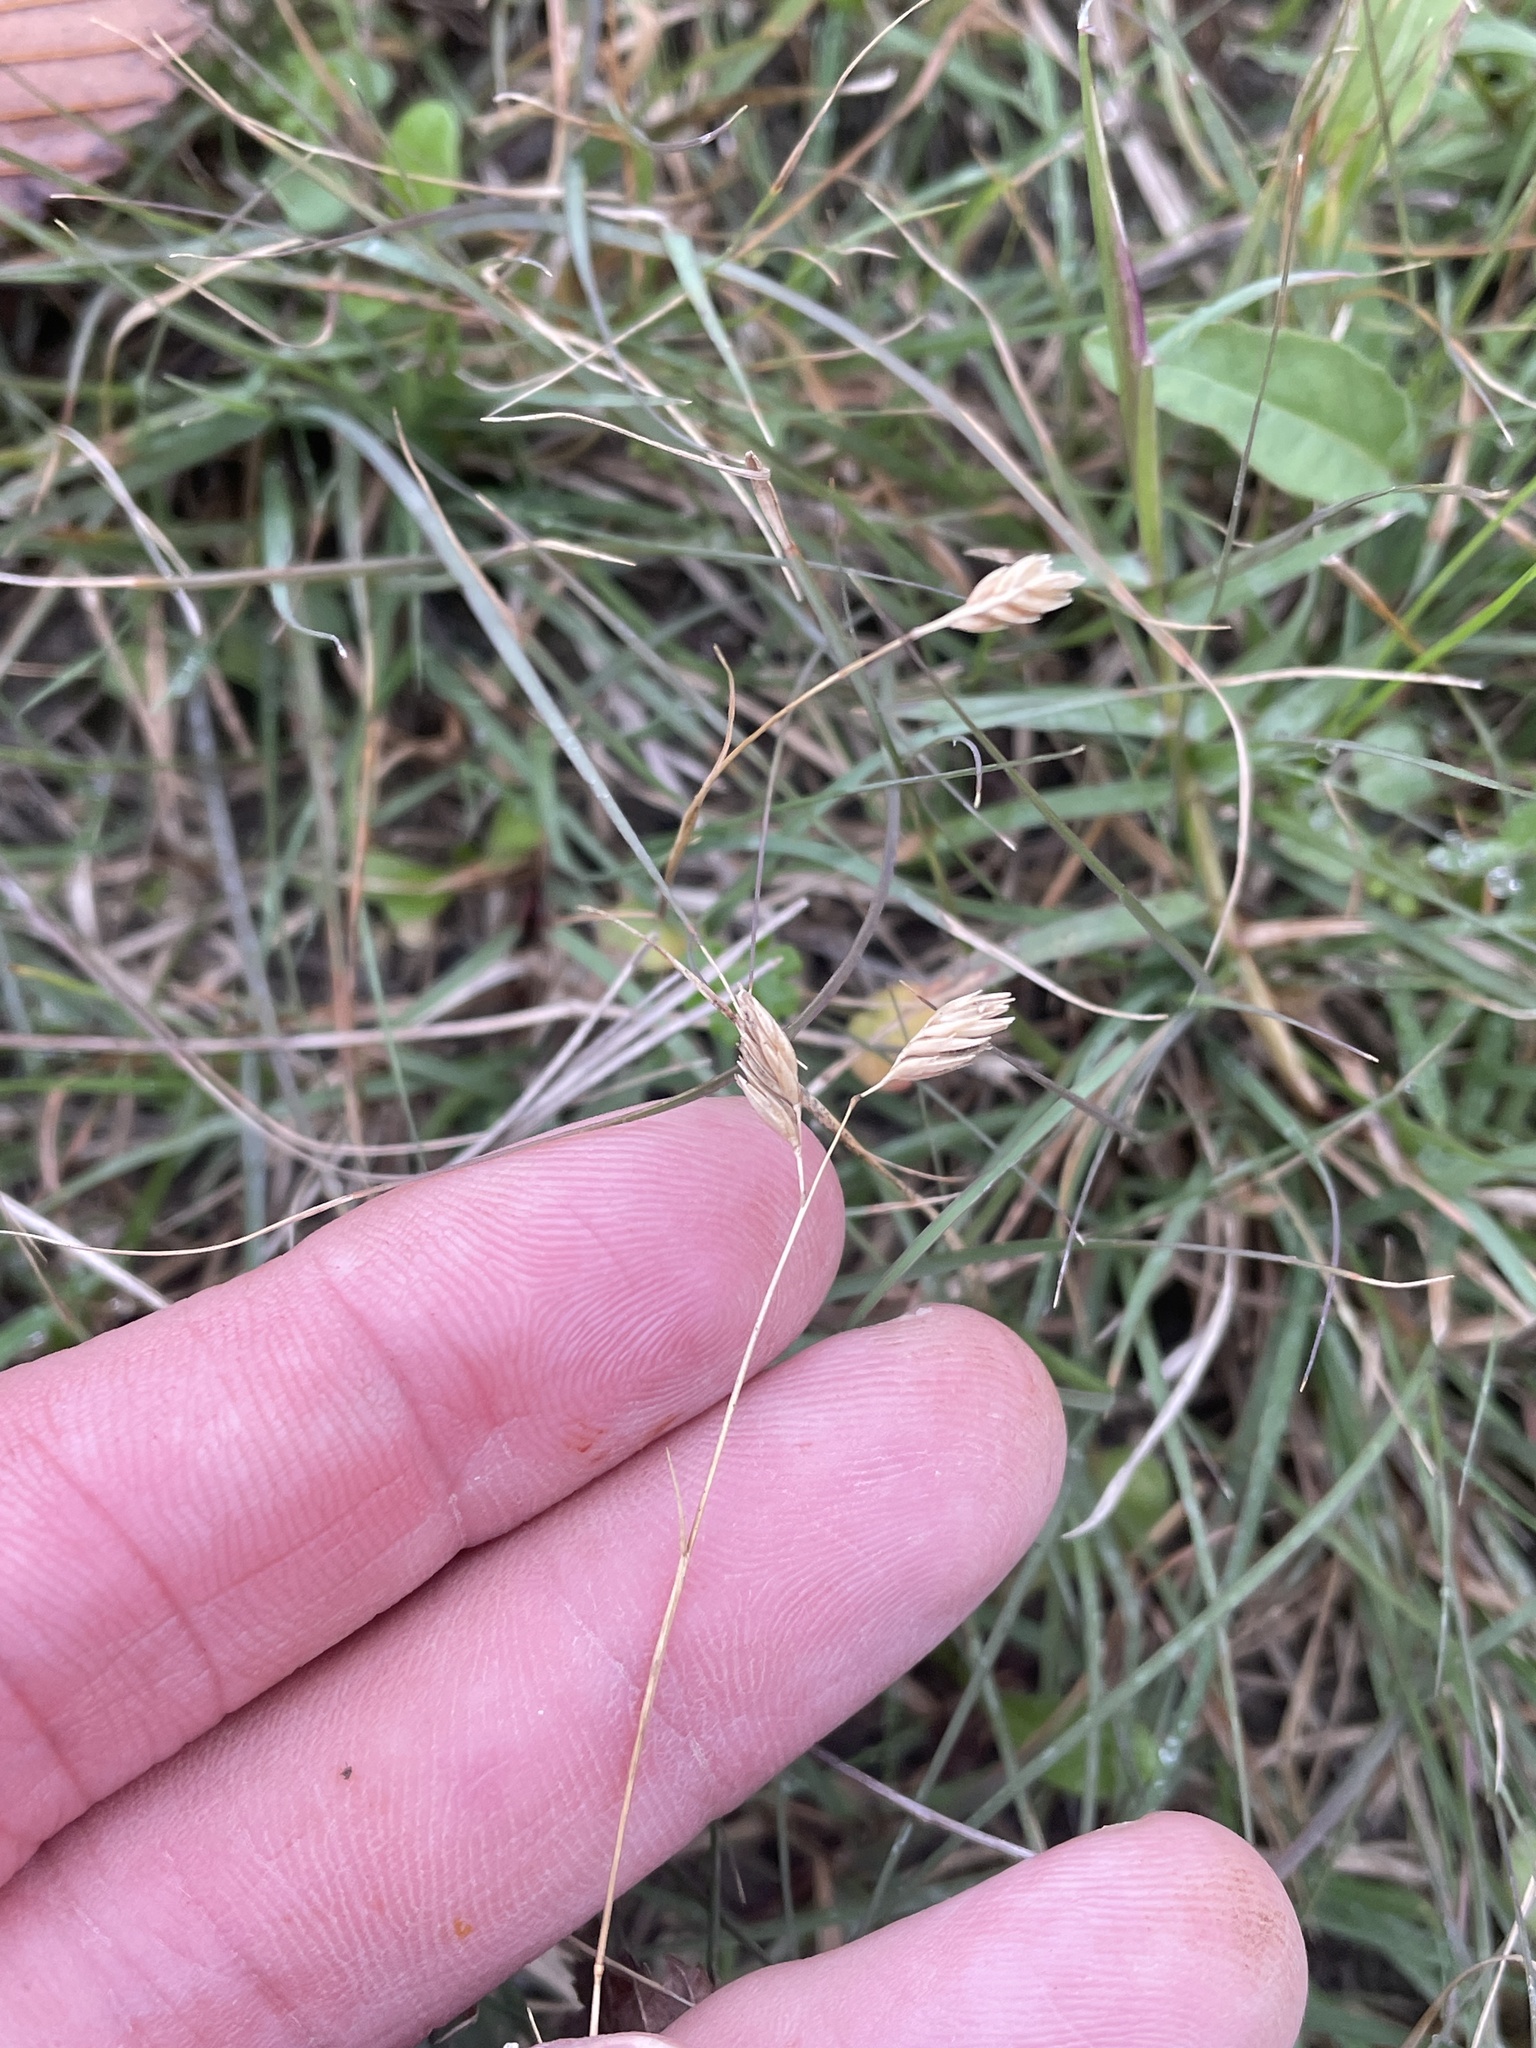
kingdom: Plantae
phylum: Tracheophyta
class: Liliopsida
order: Poales
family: Poaceae
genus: Bouteloua
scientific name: Bouteloua dactyloides
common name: Buffalo grass
